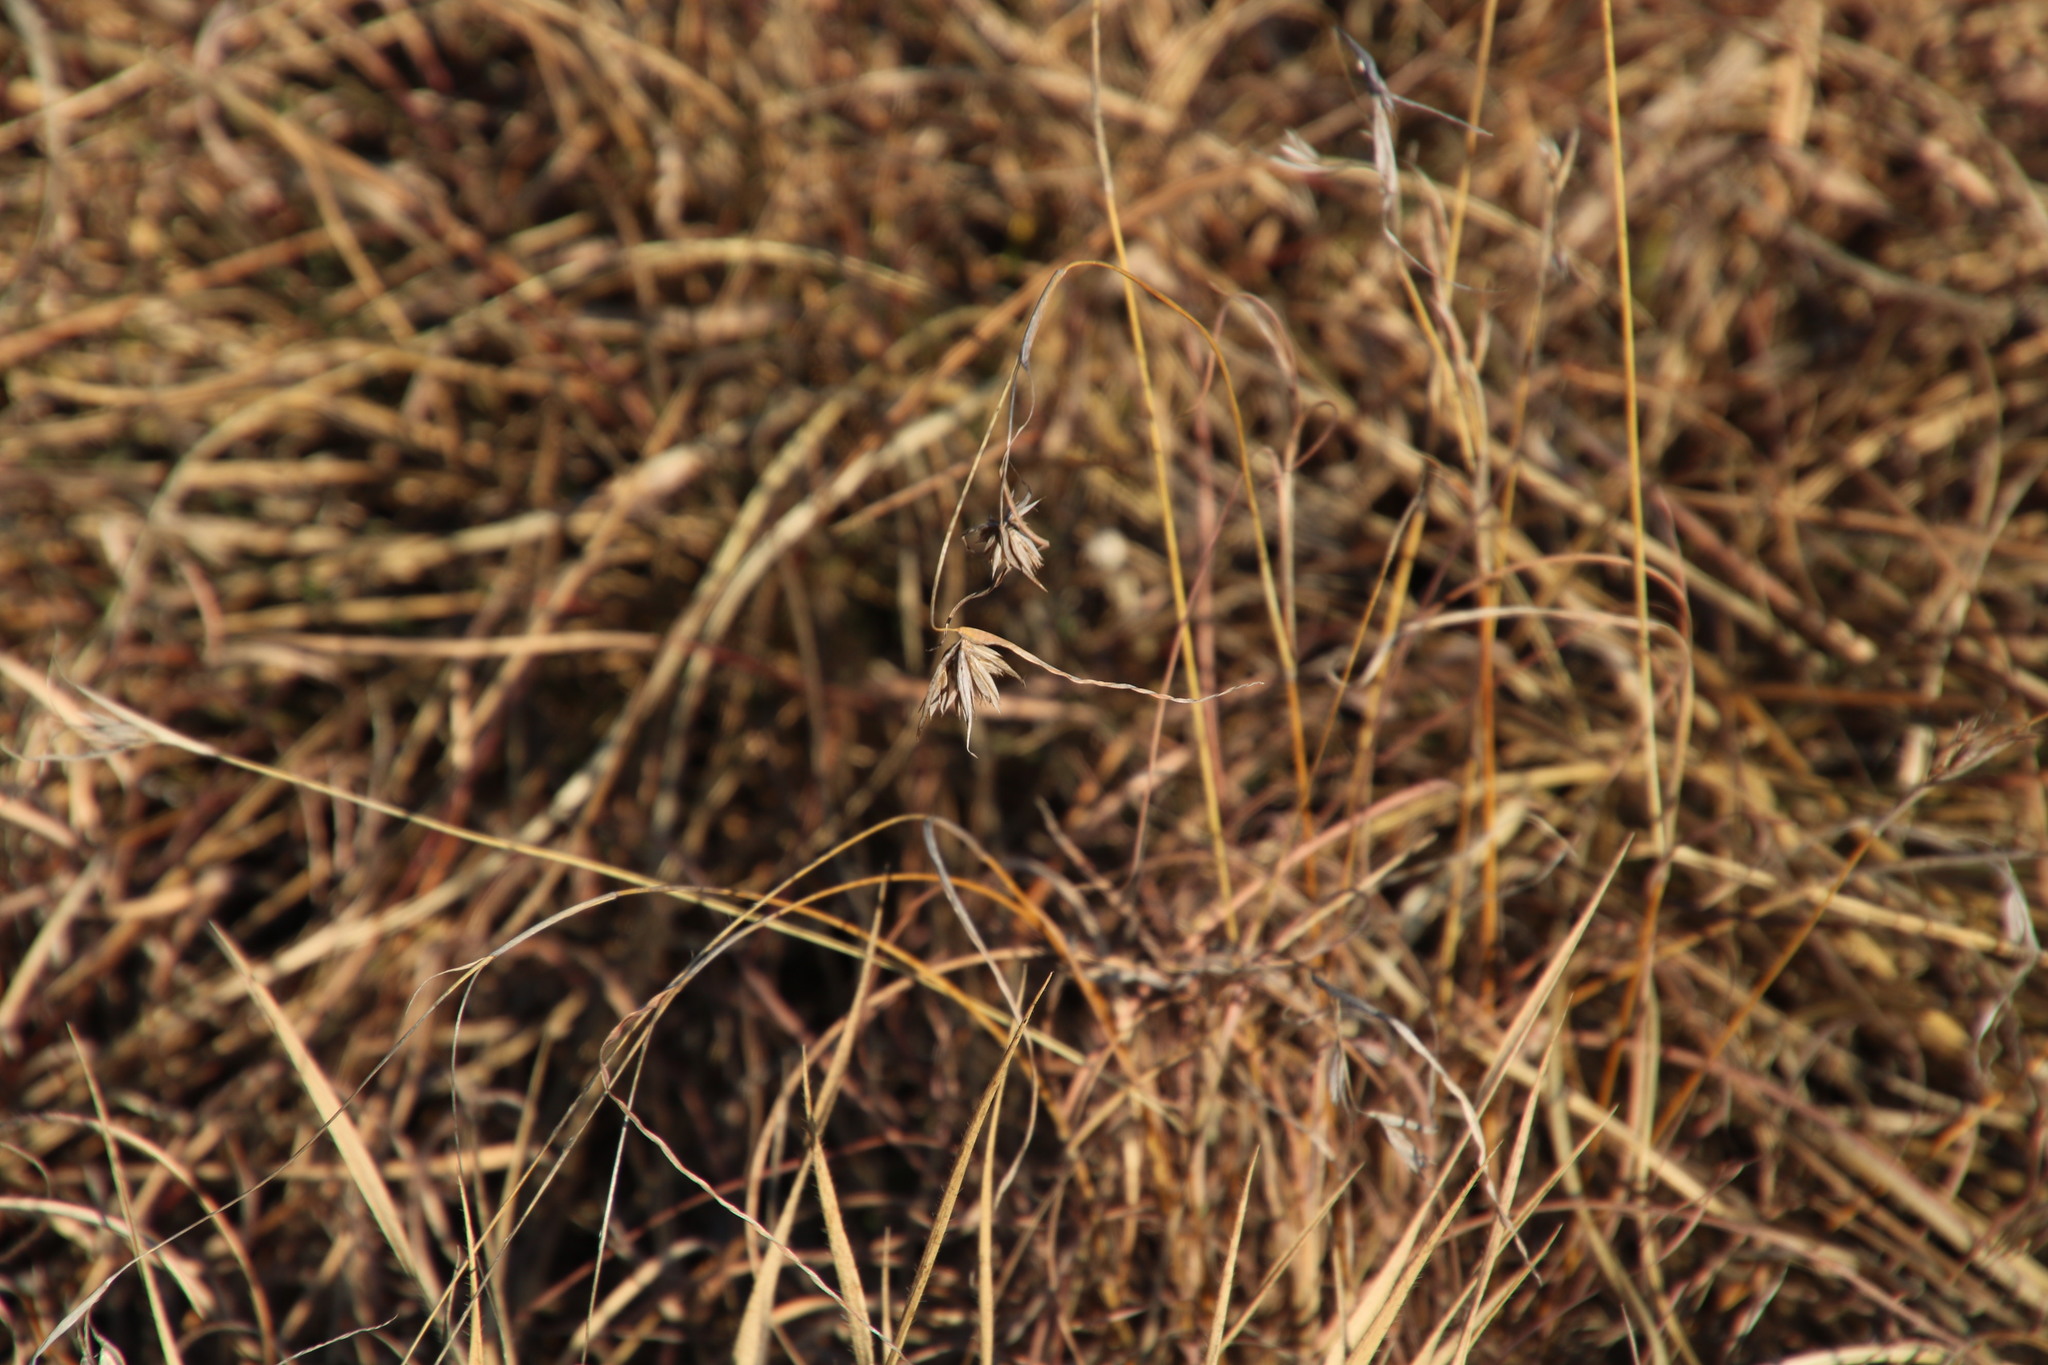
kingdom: Plantae
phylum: Tracheophyta
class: Liliopsida
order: Poales
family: Poaceae
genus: Themeda
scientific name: Themeda triandra
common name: Kangaroo grass
